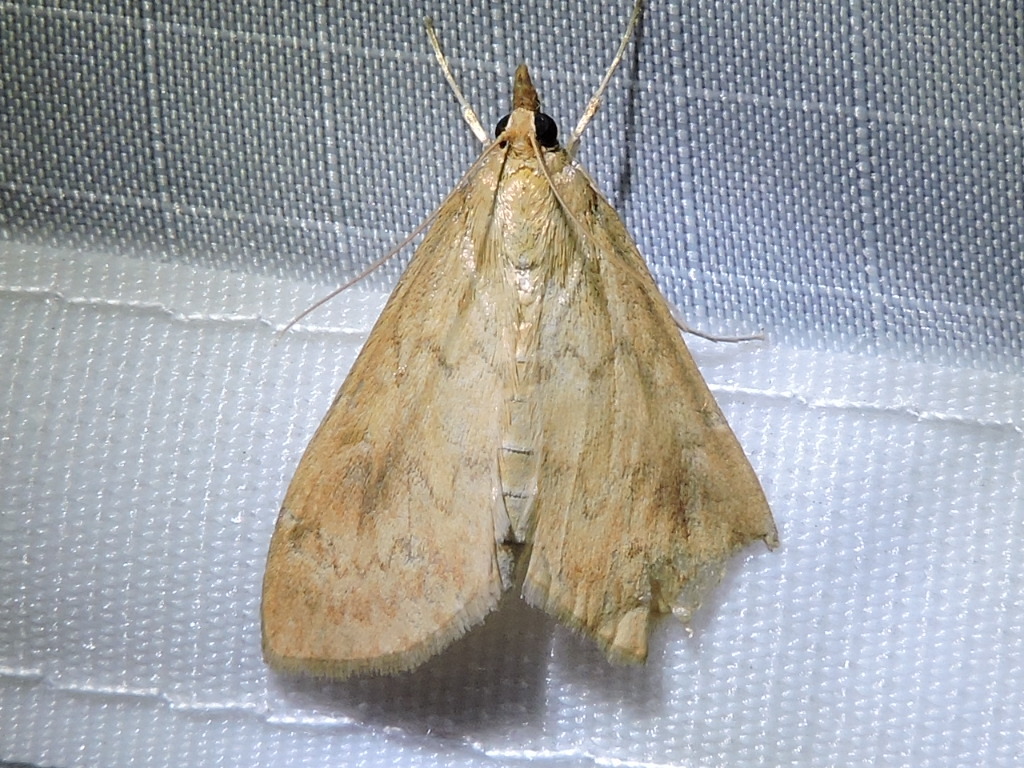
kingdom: Animalia
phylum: Arthropoda
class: Insecta
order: Lepidoptera
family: Crambidae
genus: Ostrinia
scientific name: Ostrinia penitalis
